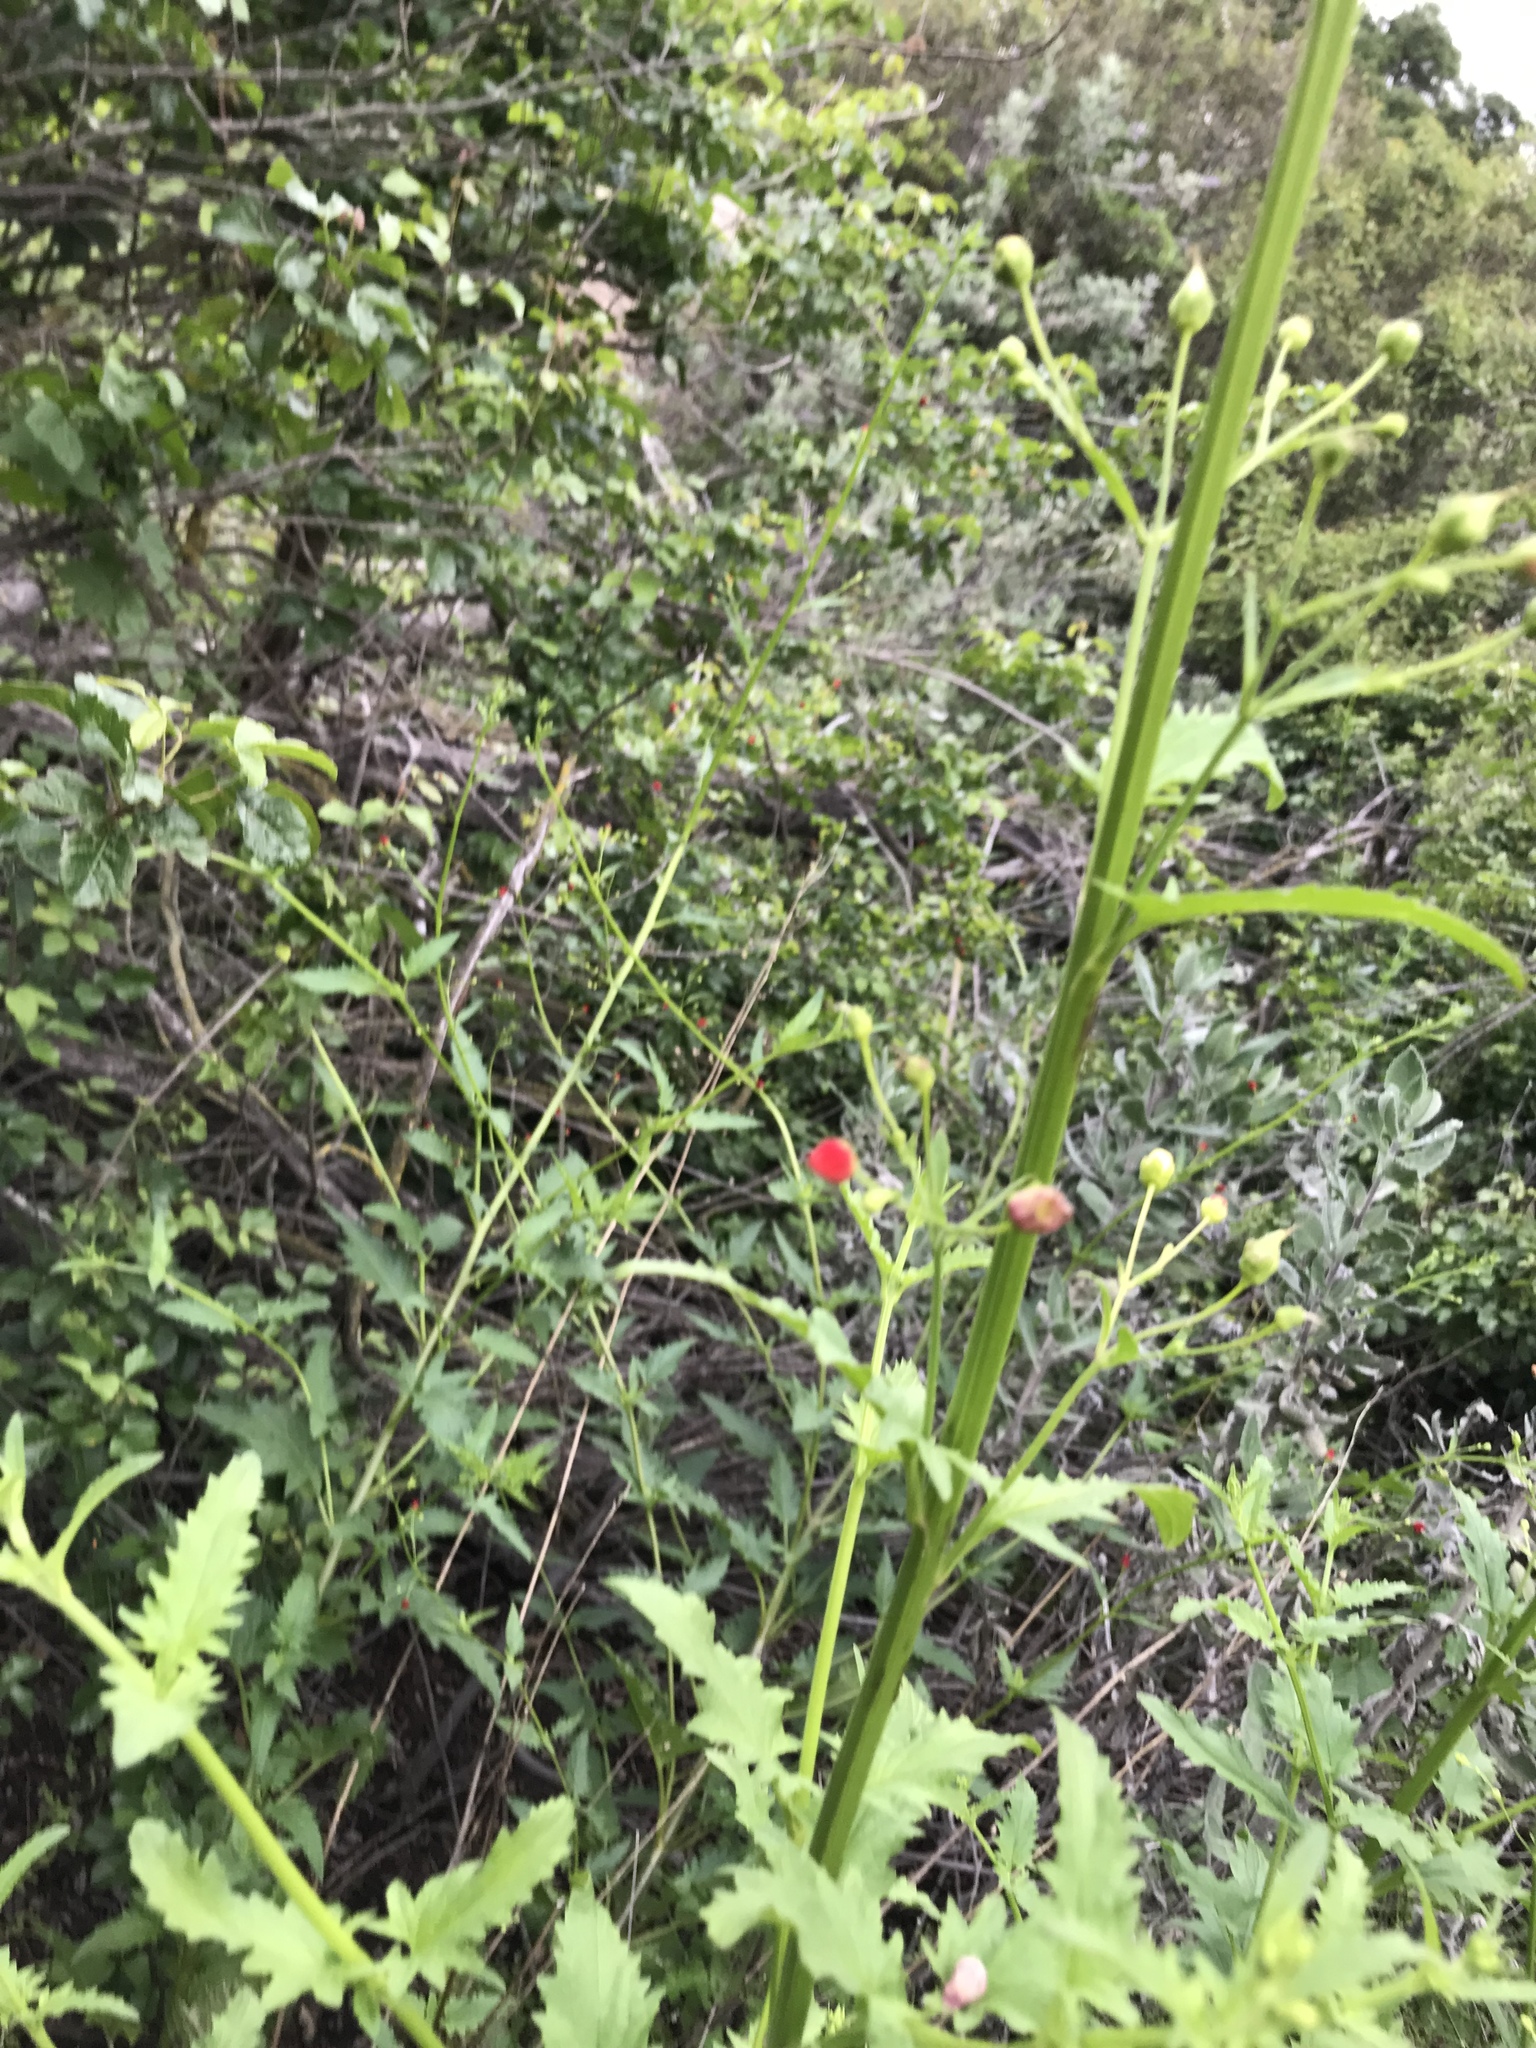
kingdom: Plantae
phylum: Tracheophyta
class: Magnoliopsida
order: Lamiales
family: Scrophulariaceae
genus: Scrophularia
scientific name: Scrophularia californica
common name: California figwort
